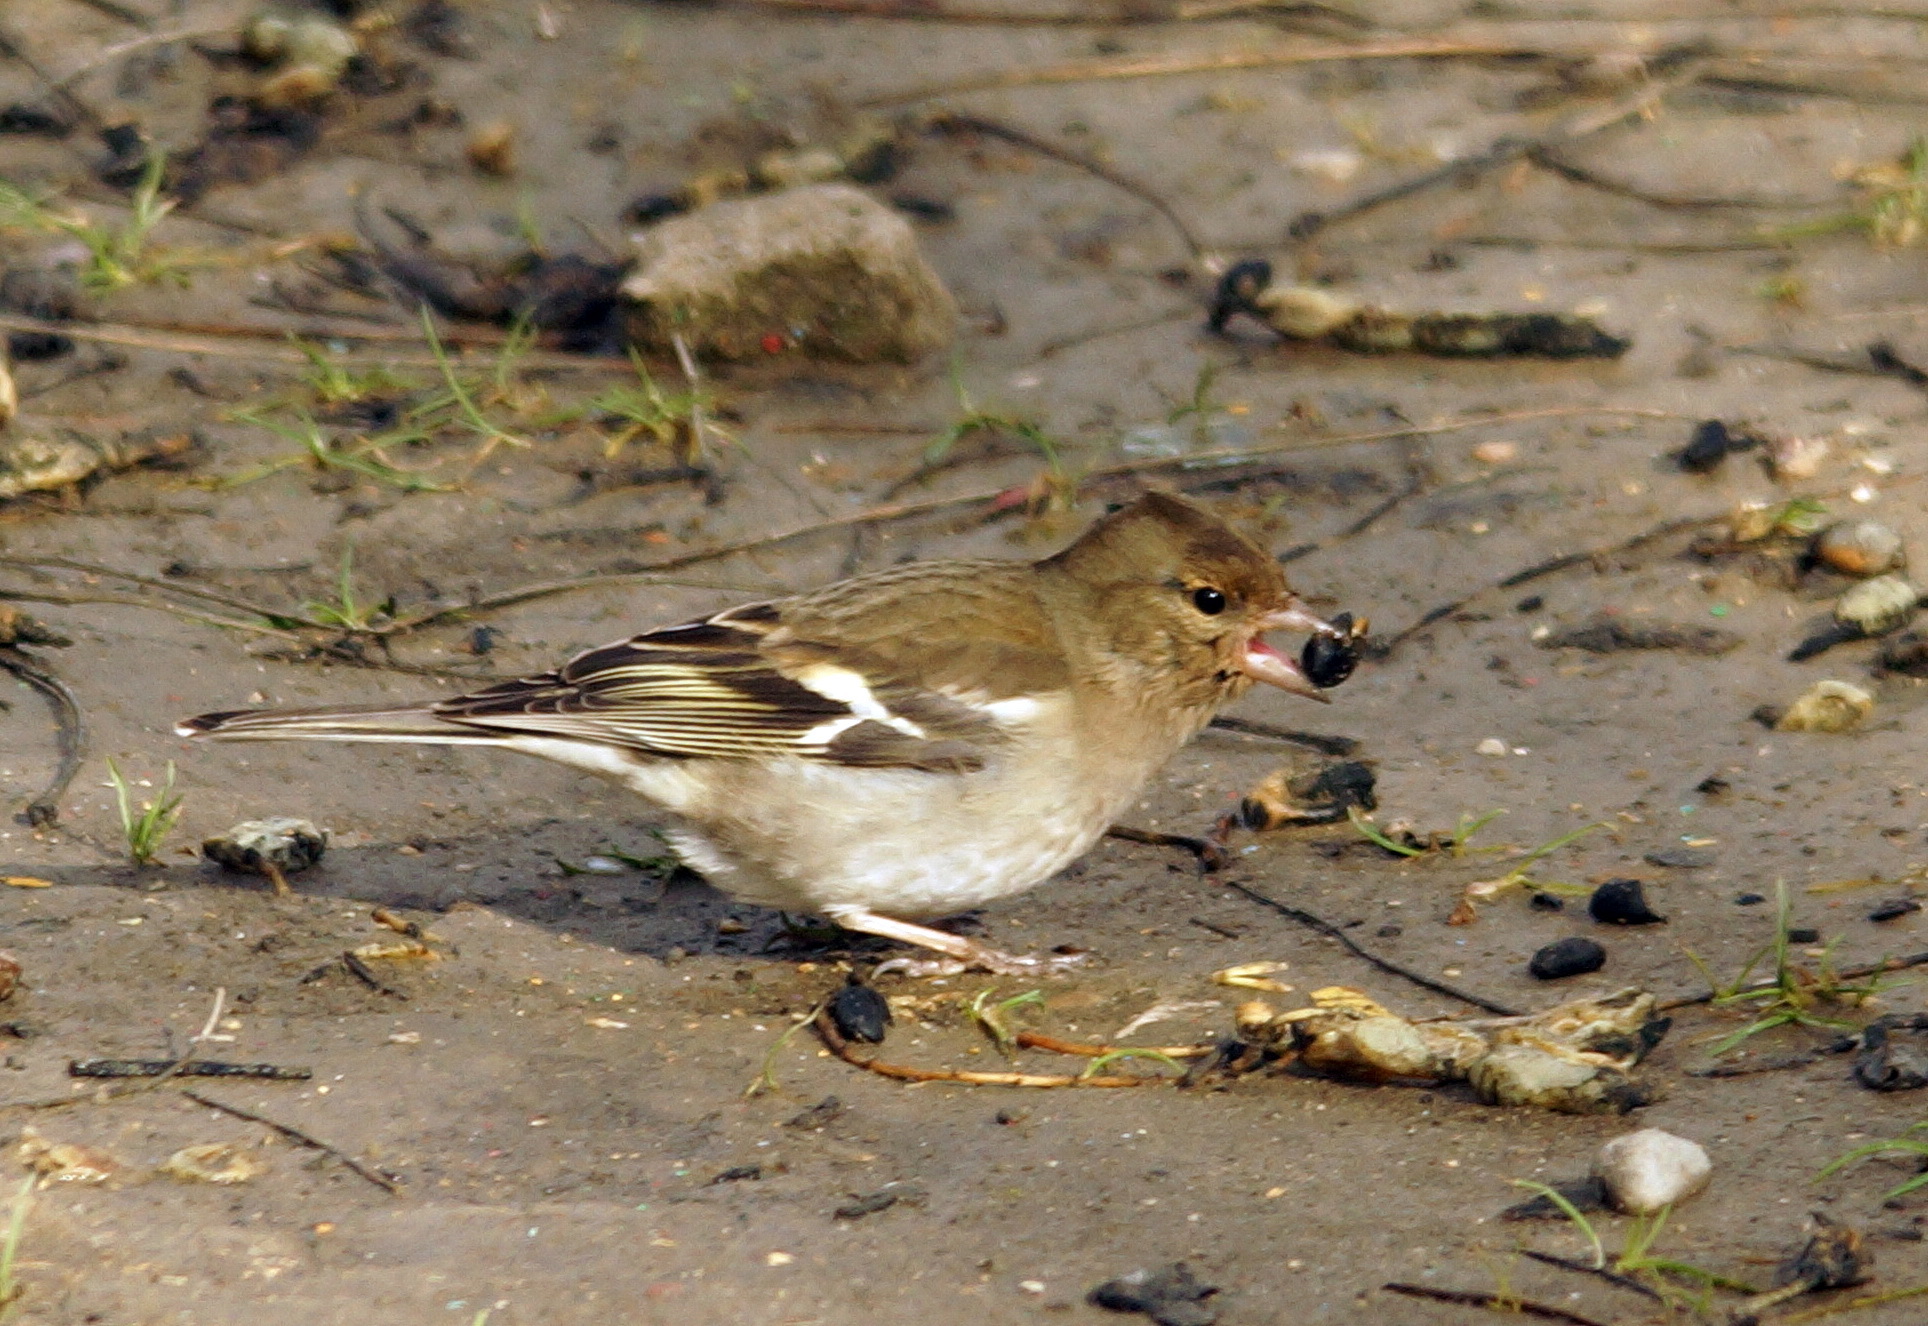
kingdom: Animalia
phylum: Chordata
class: Aves
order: Passeriformes
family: Fringillidae
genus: Fringilla
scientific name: Fringilla coelebs
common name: Common chaffinch
